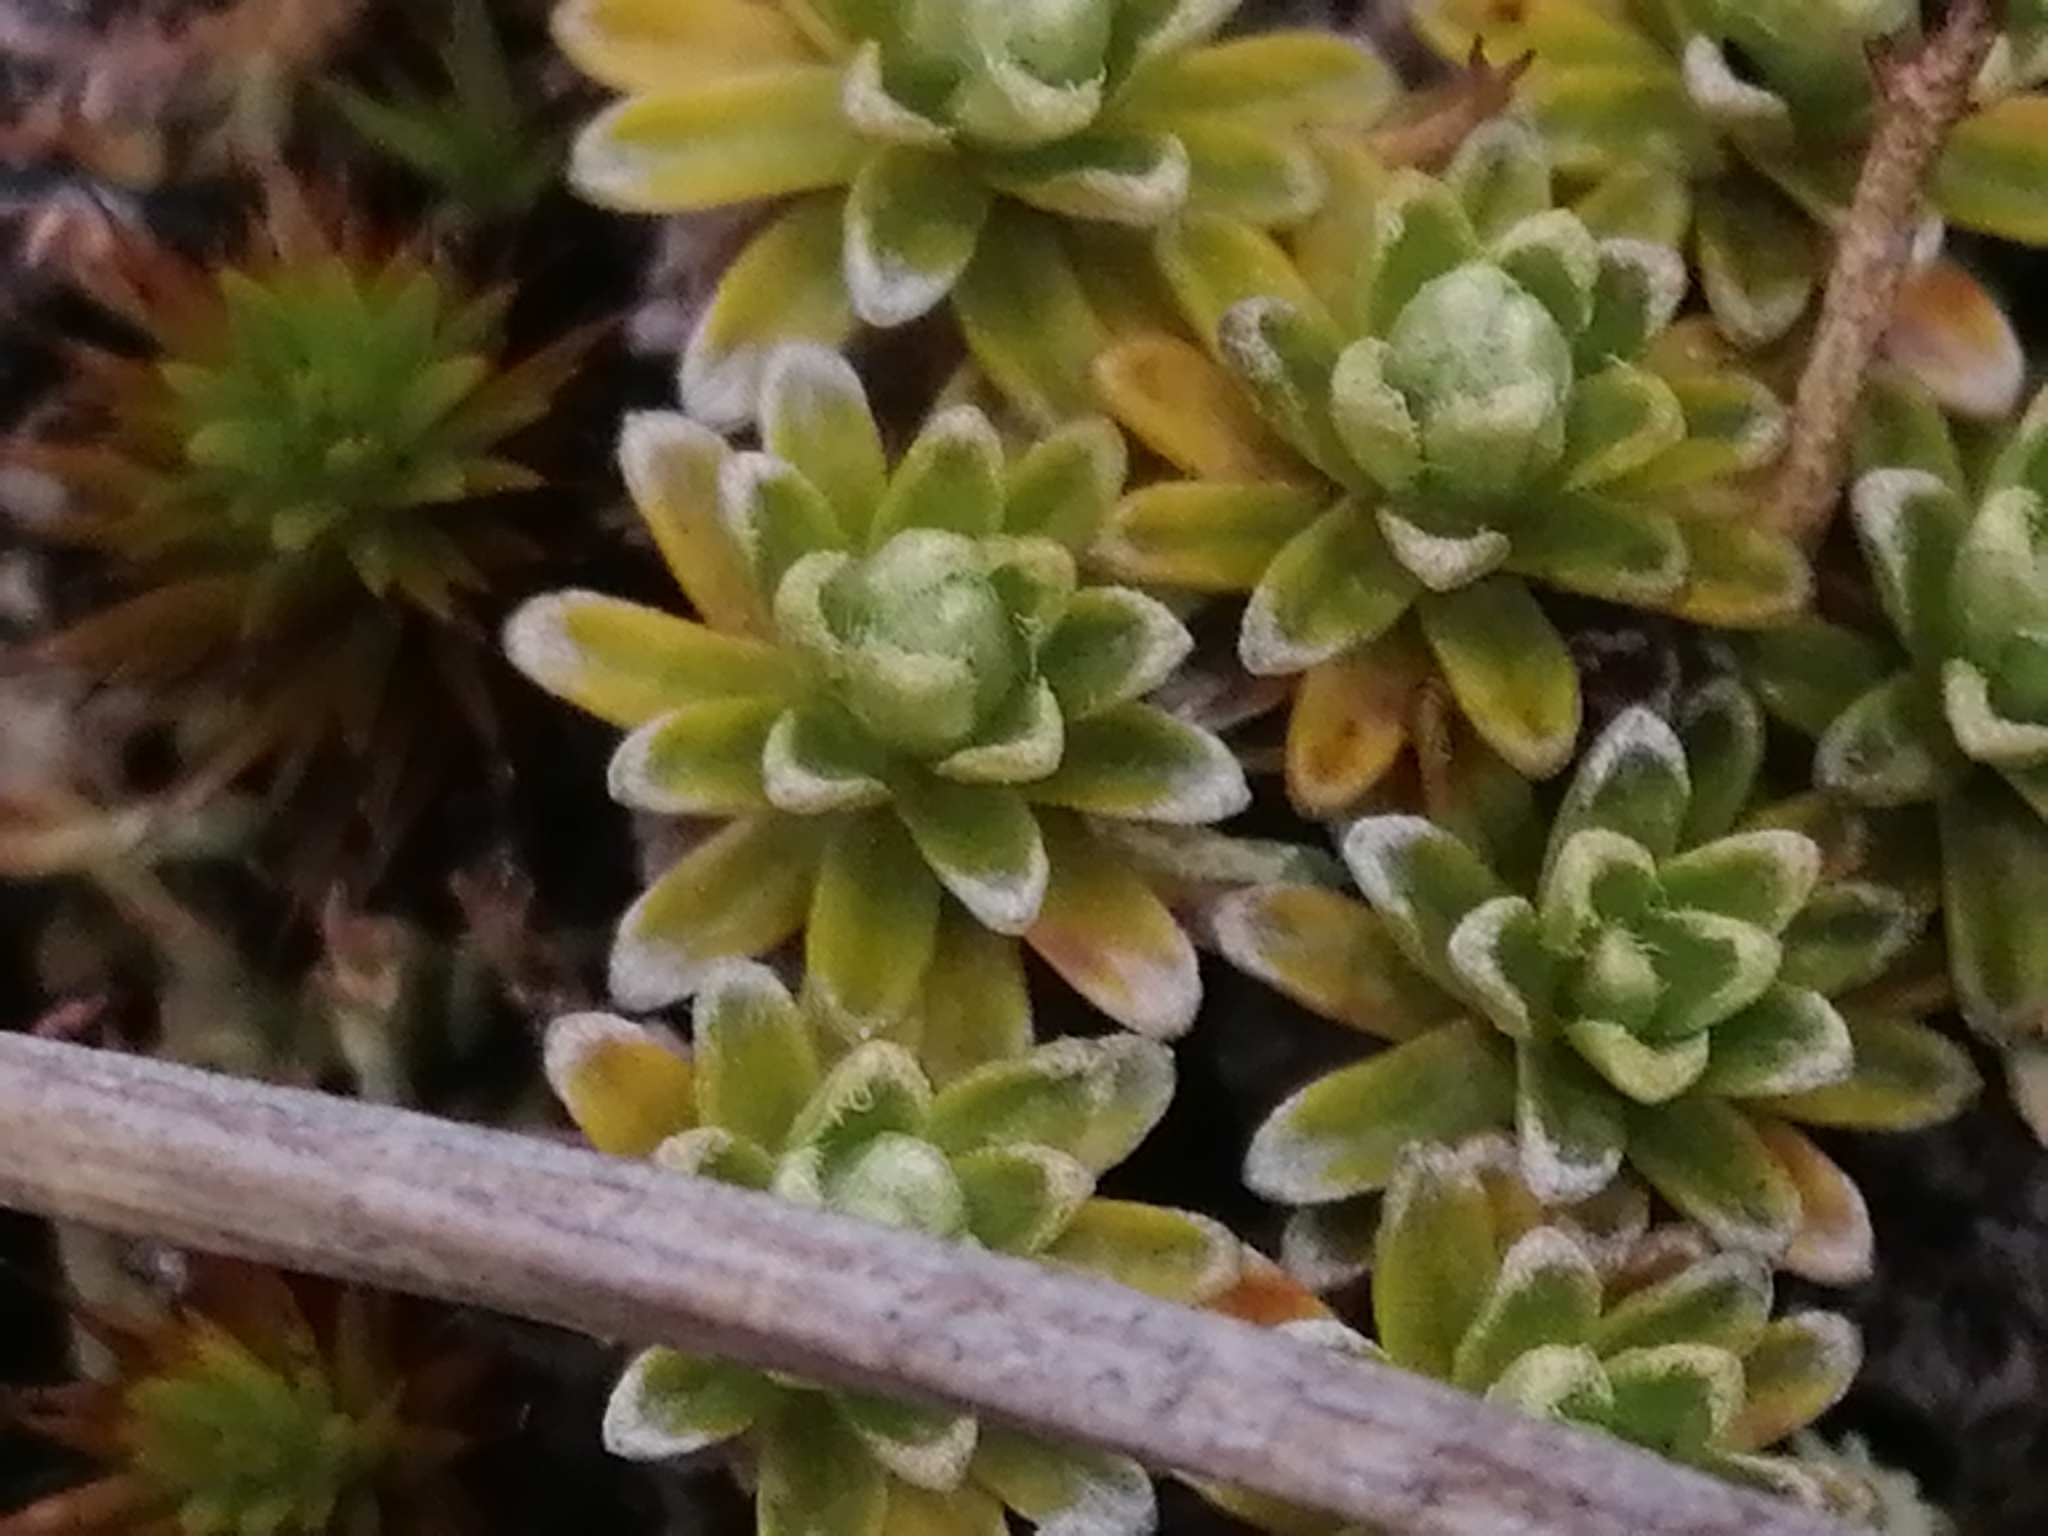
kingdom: Plantae
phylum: Tracheophyta
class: Magnoliopsida
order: Asterales
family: Asteraceae
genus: Raoulia
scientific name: Raoulia subsericea
